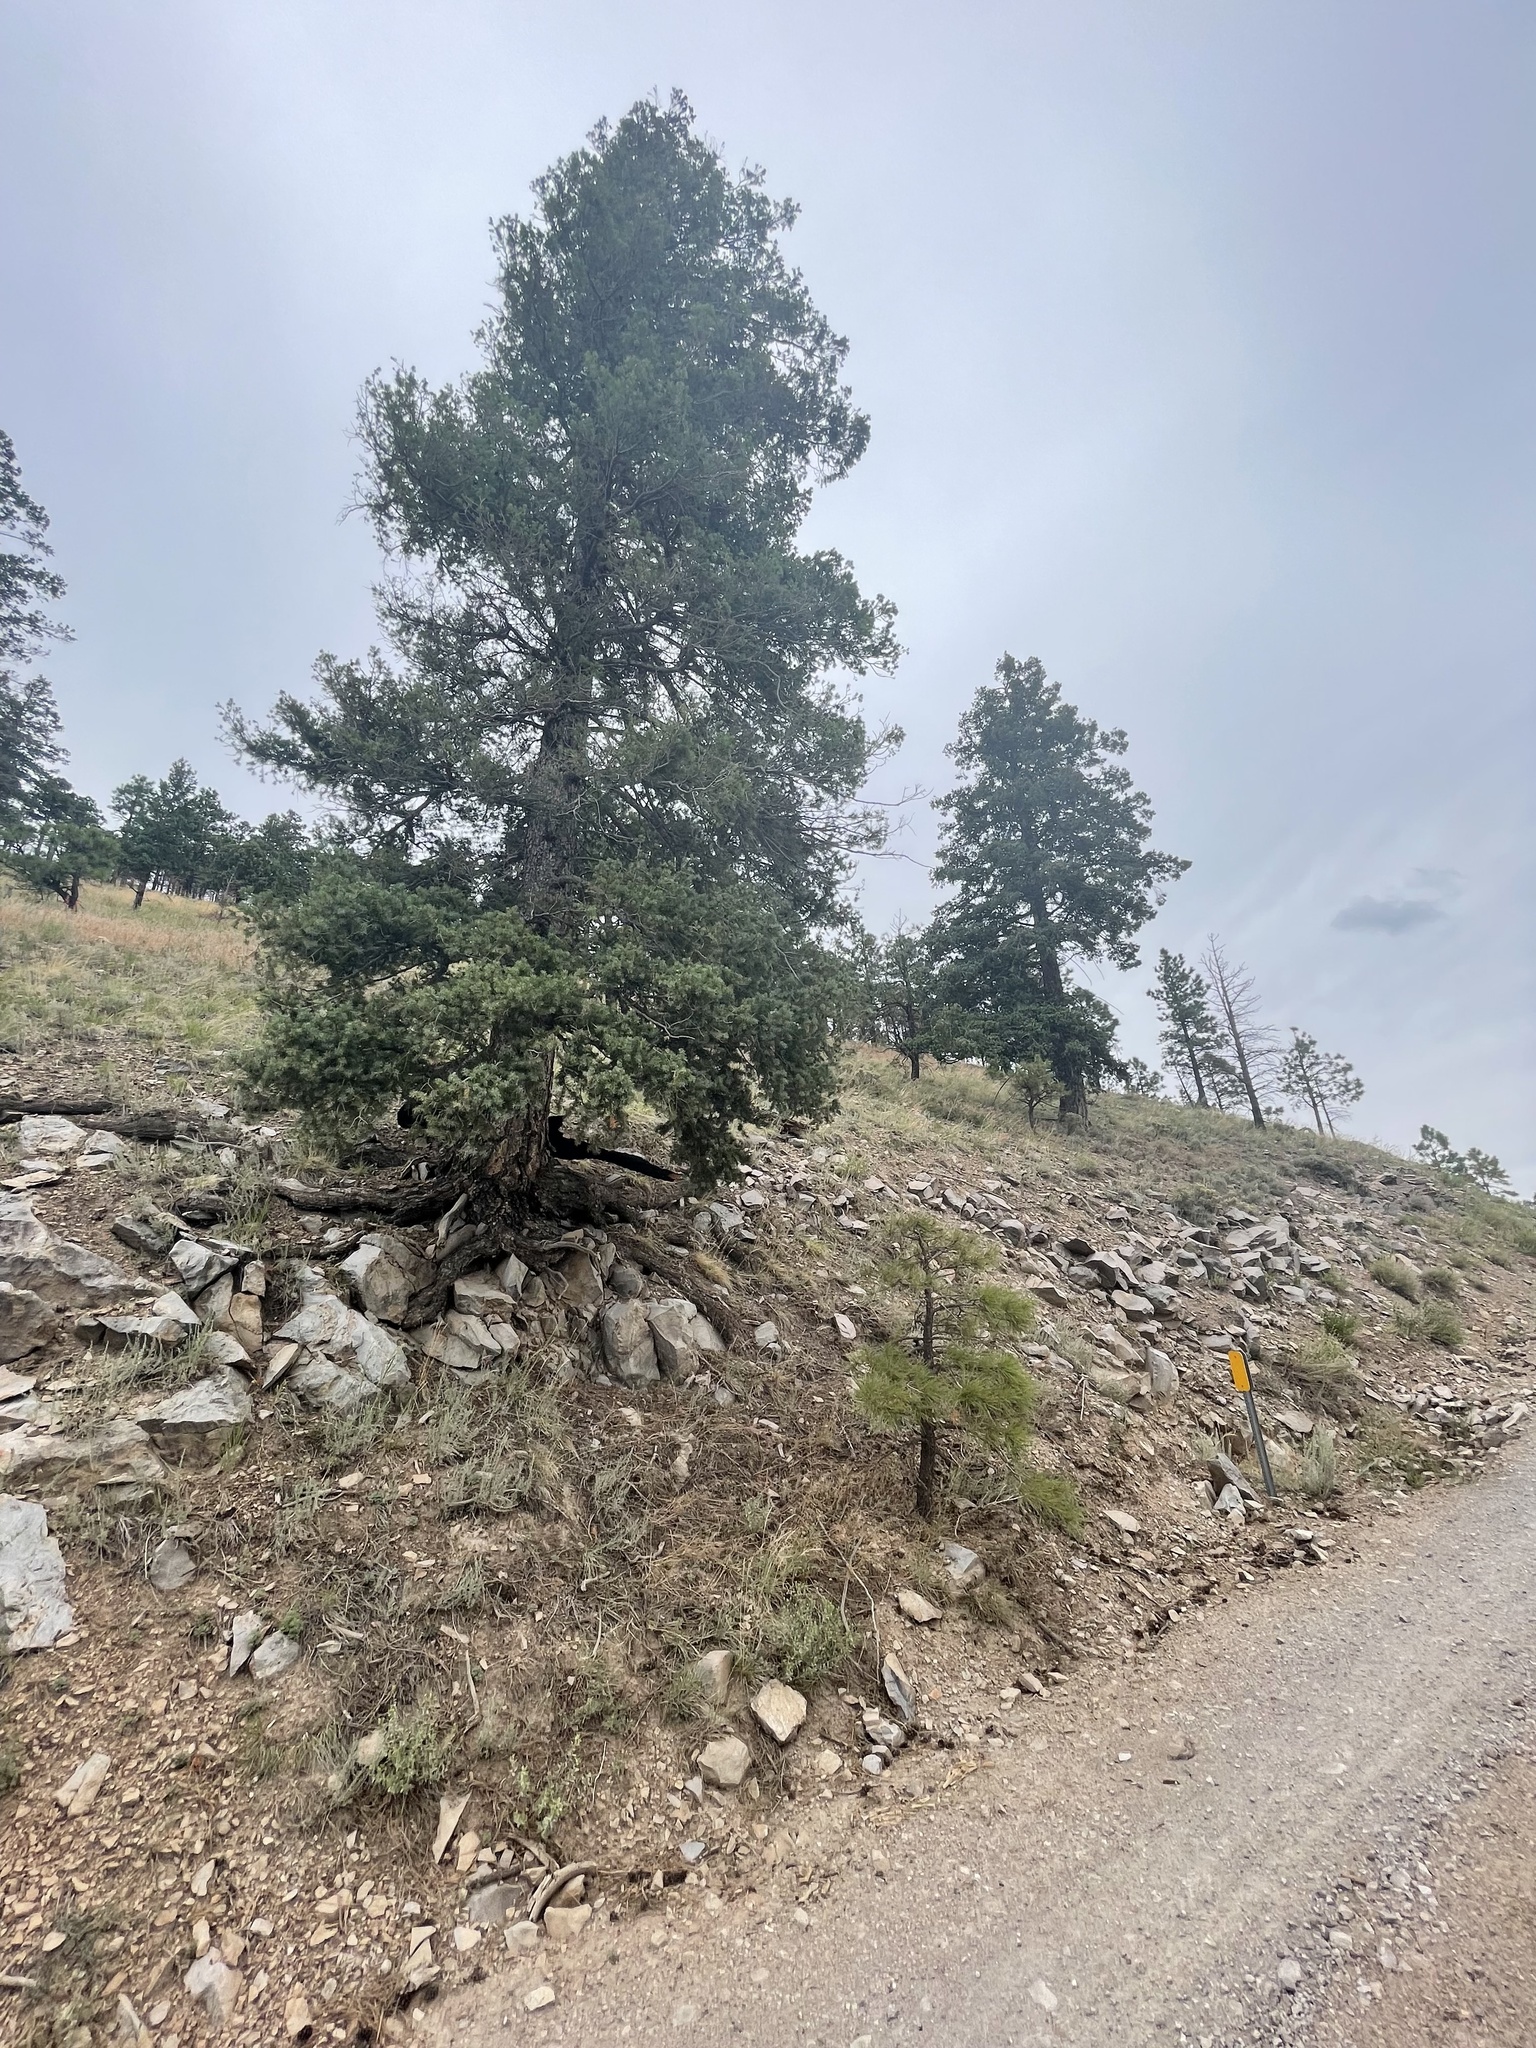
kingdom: Plantae
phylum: Tracheophyta
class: Pinopsida
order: Pinales
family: Pinaceae
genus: Pseudotsuga
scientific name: Pseudotsuga menziesii
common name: Douglas fir
